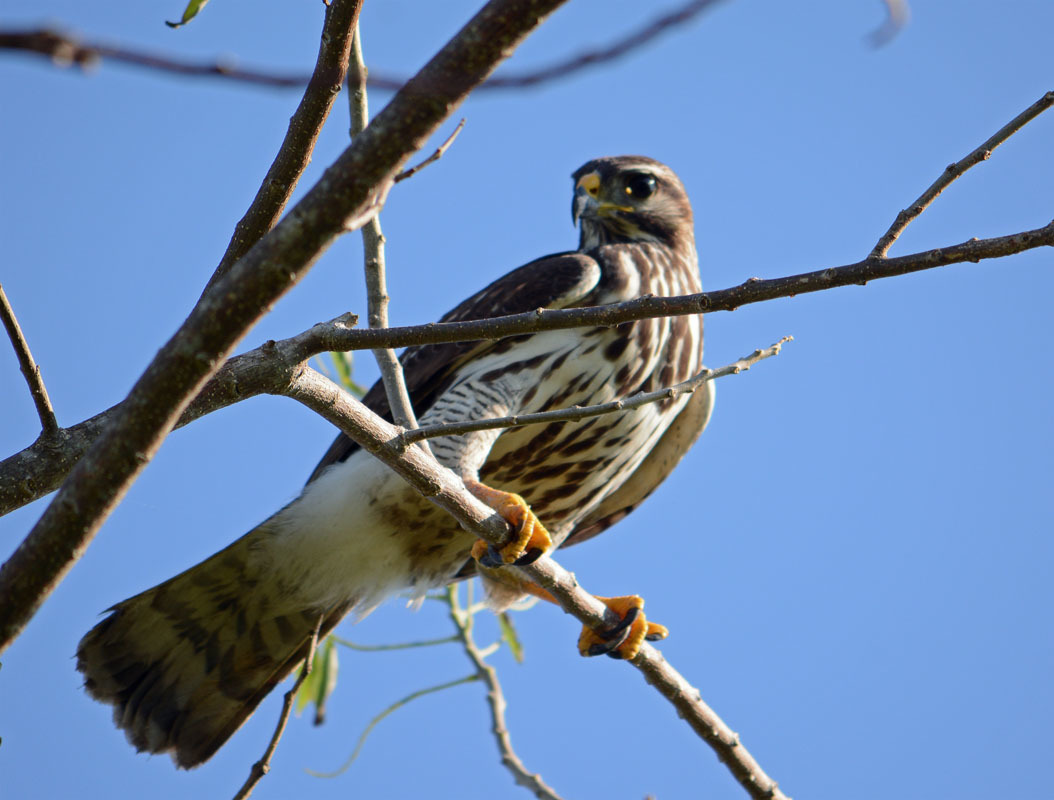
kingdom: Animalia
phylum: Chordata
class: Aves
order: Accipitriformes
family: Accipitridae
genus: Buteo
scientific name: Buteo nitidus
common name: Grey-lined hawk
